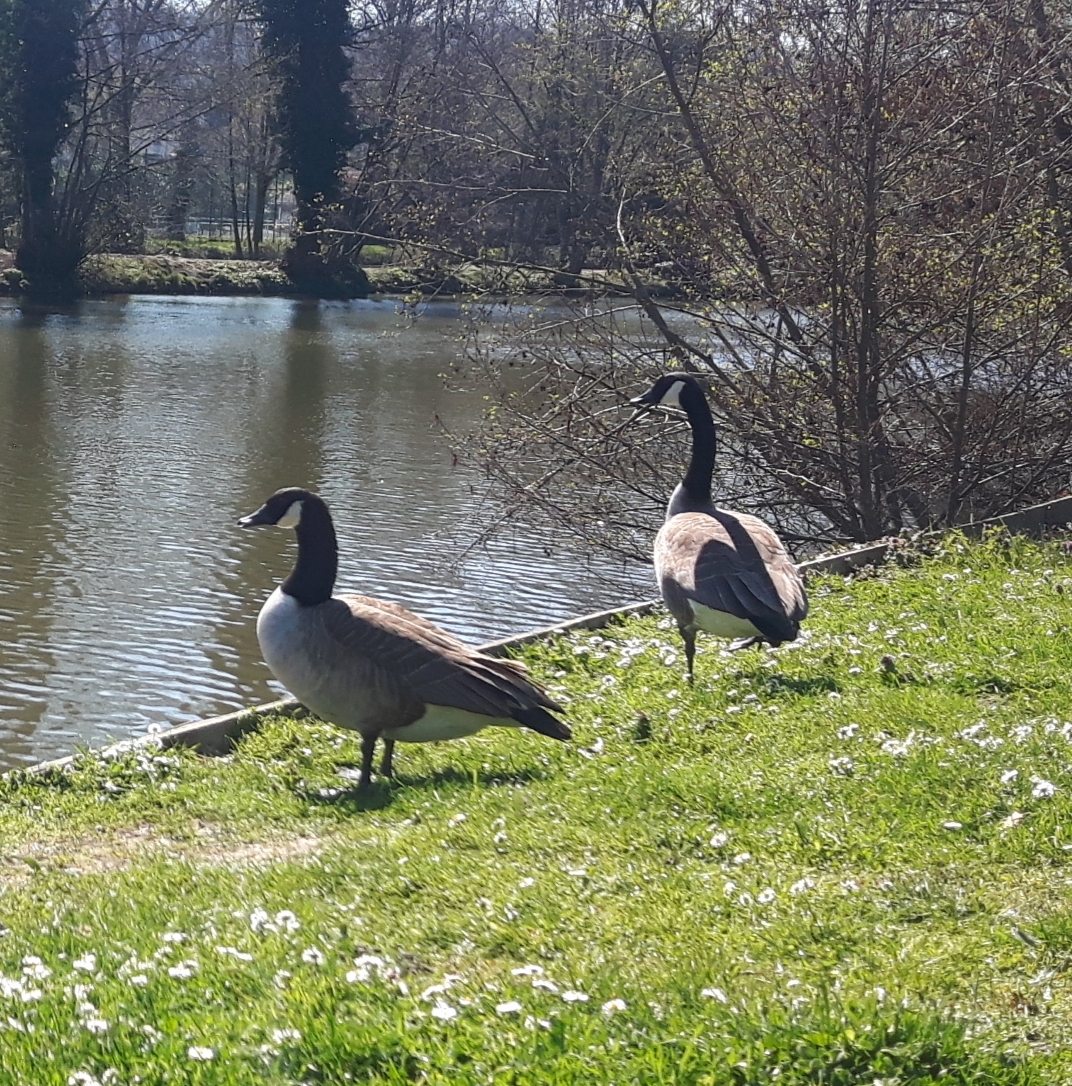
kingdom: Animalia
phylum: Chordata
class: Aves
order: Anseriformes
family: Anatidae
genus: Branta
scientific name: Branta canadensis
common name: Canada goose
